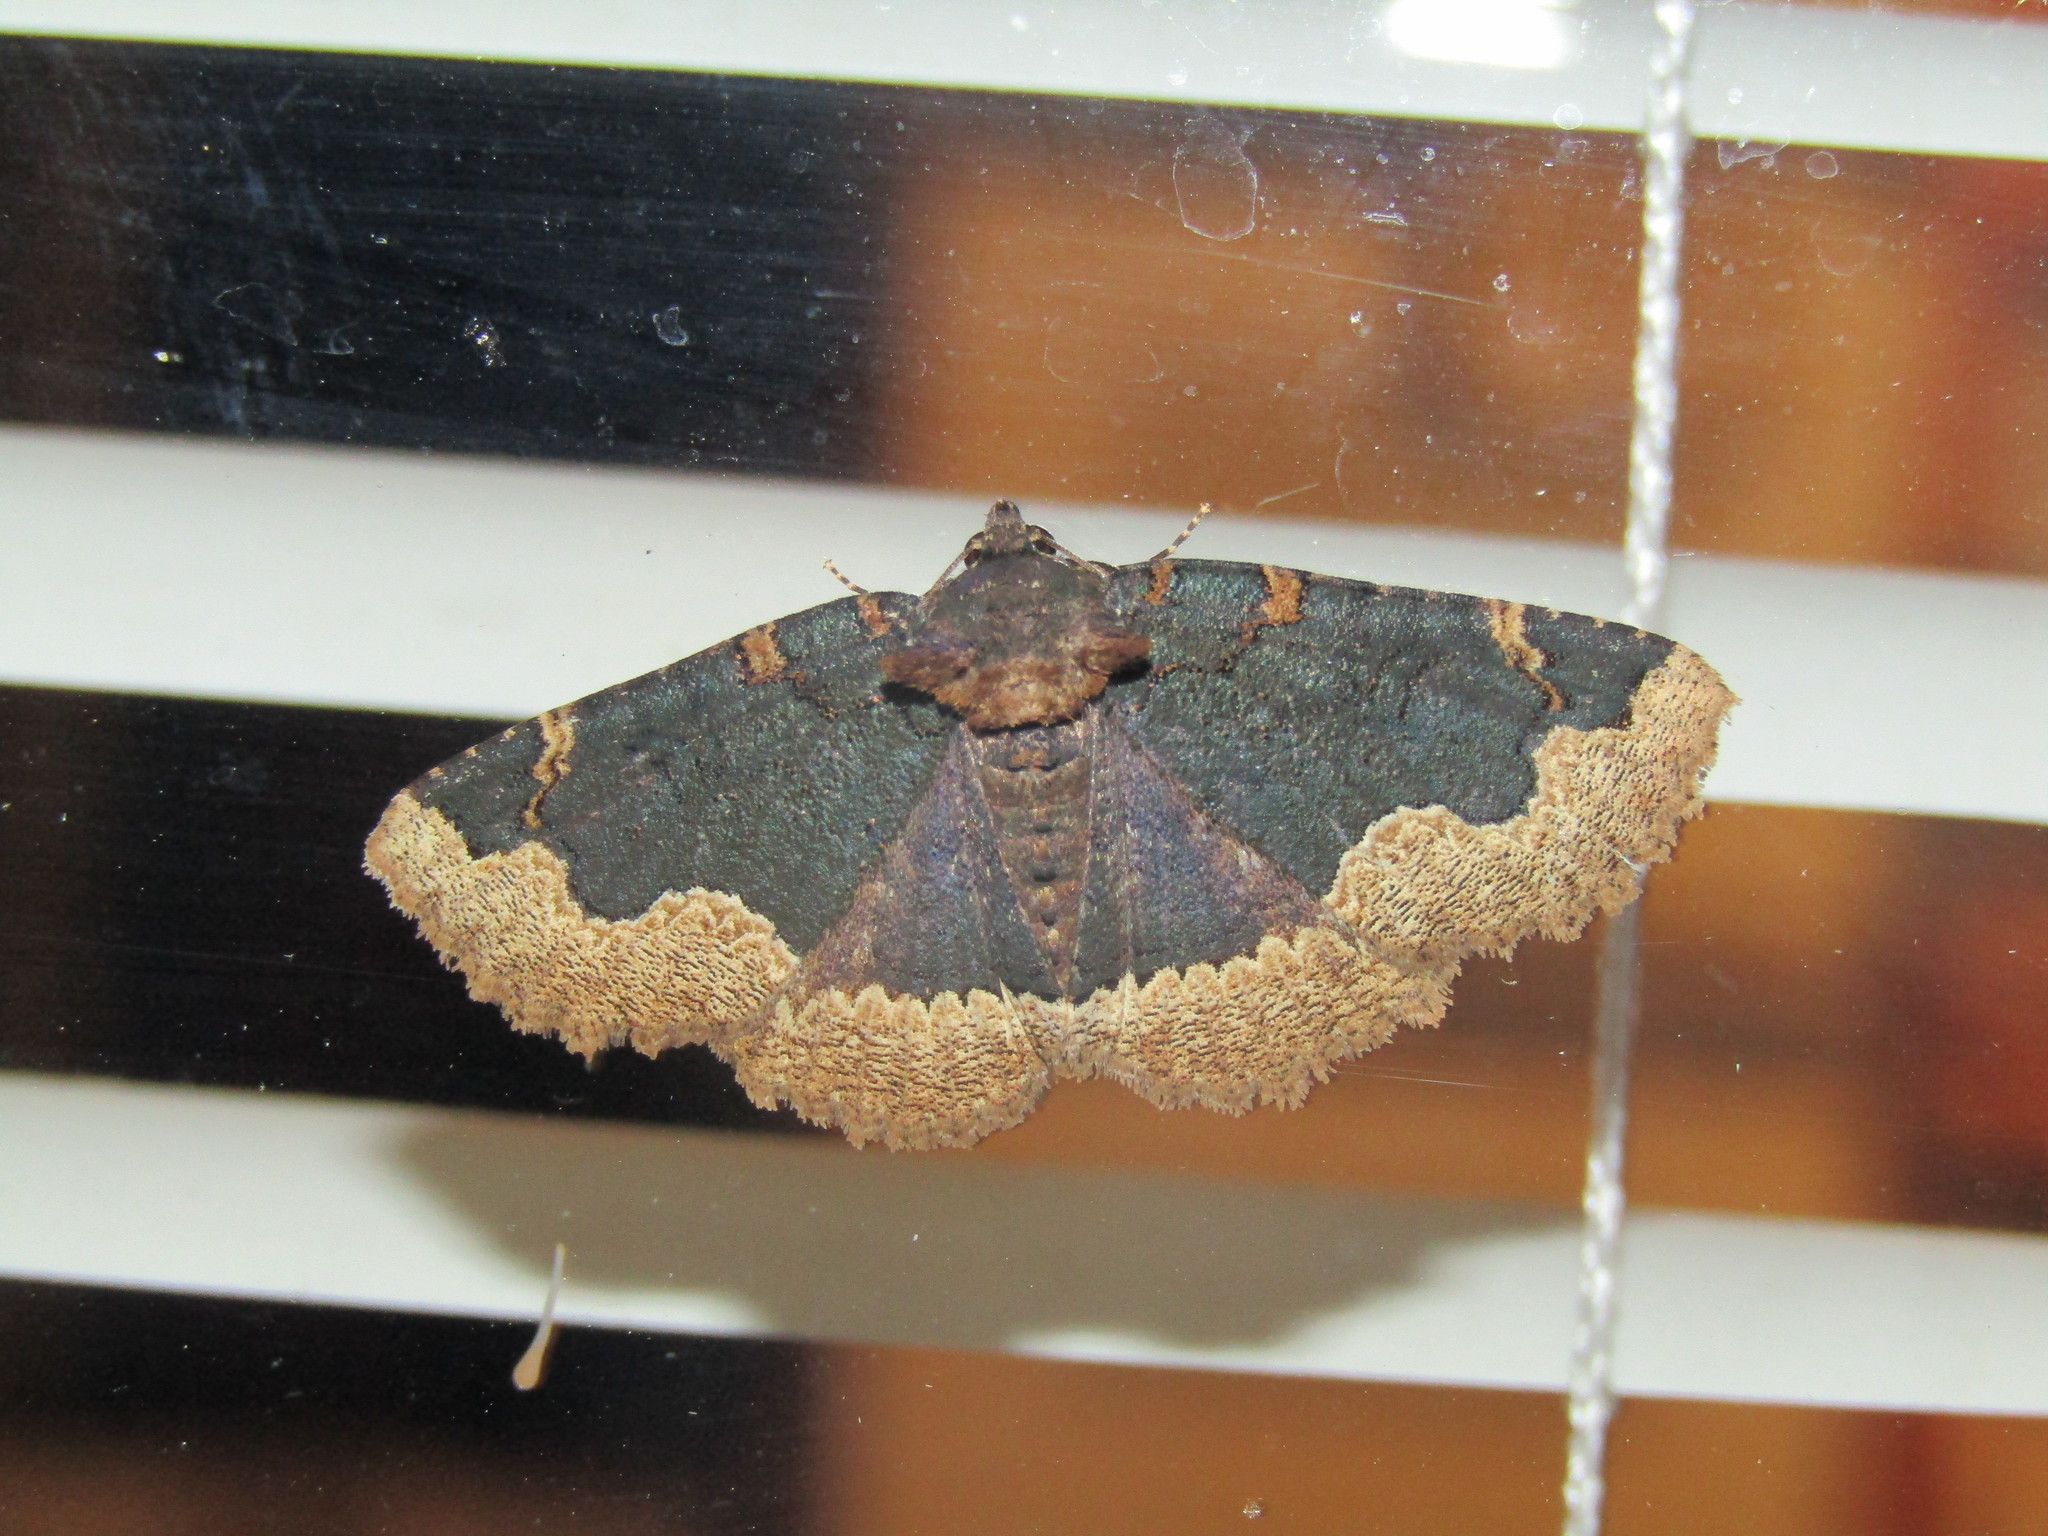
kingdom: Animalia
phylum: Arthropoda
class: Insecta
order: Lepidoptera
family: Erebidae
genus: Zale
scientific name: Zale horrida
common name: Horrid zale moth
